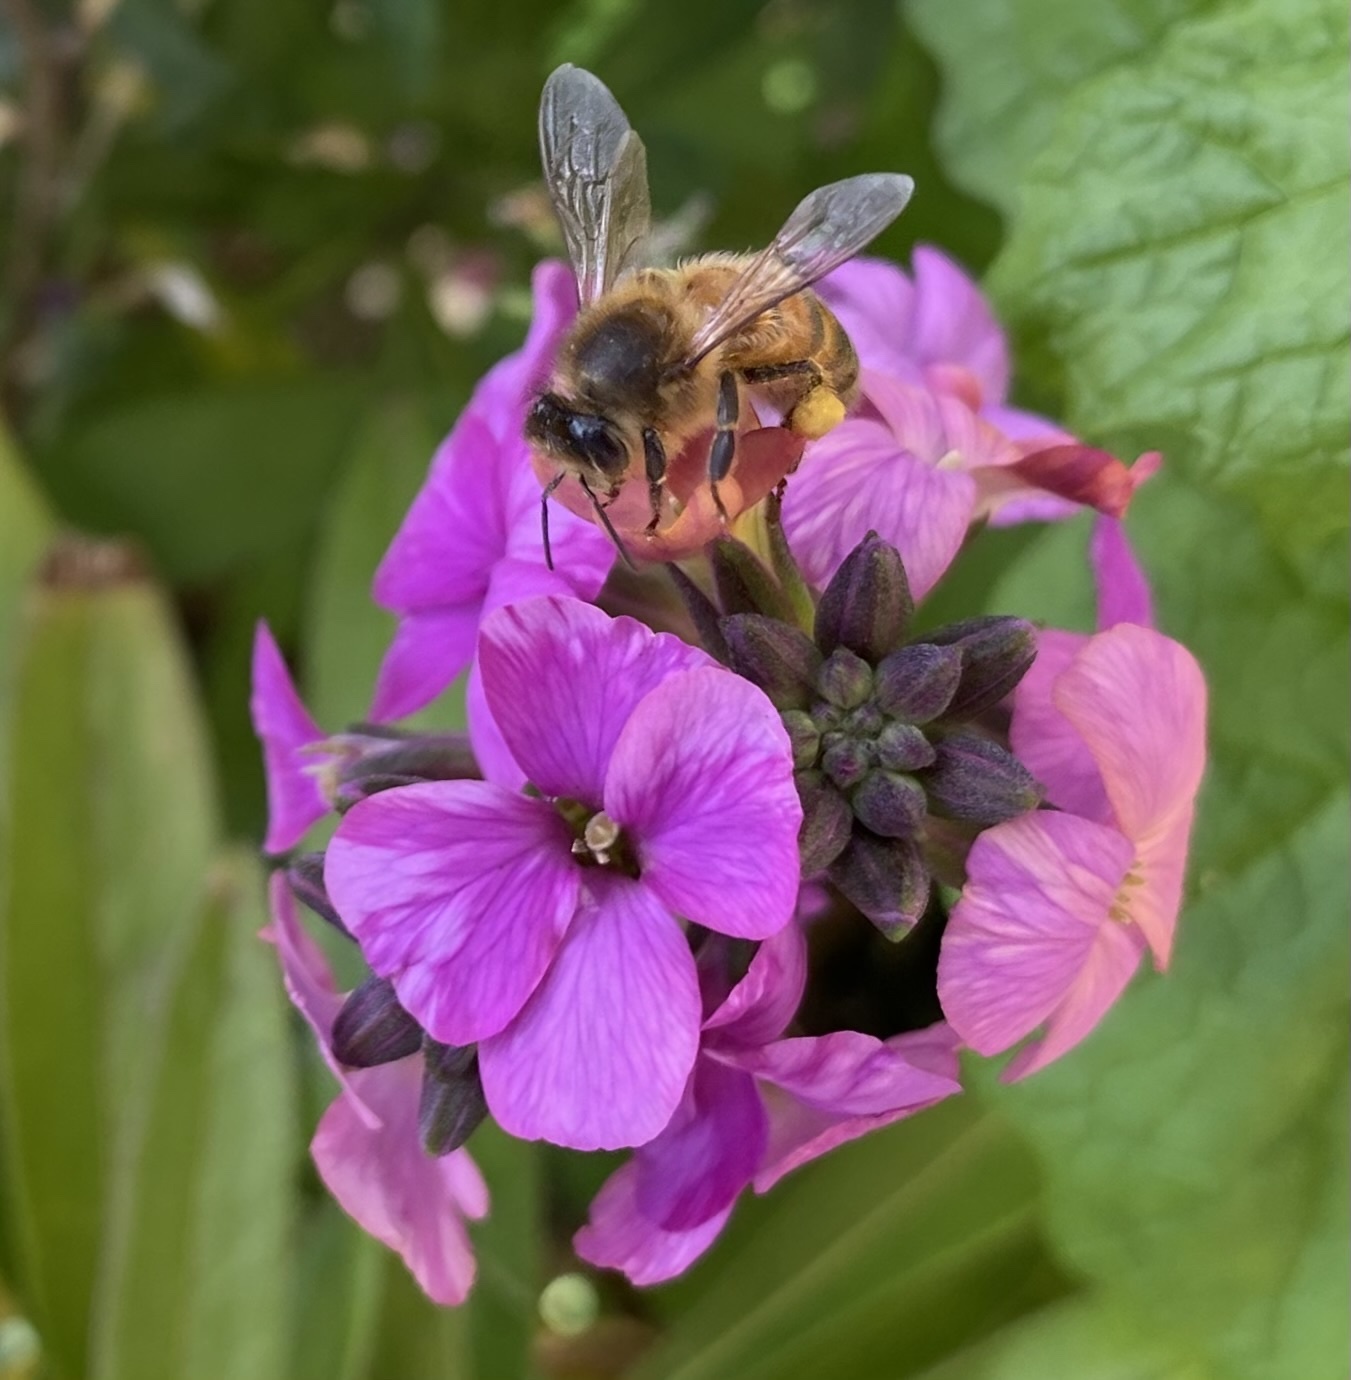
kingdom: Animalia
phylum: Arthropoda
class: Insecta
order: Hymenoptera
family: Apidae
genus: Apis
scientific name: Apis mellifera
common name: Honey bee
